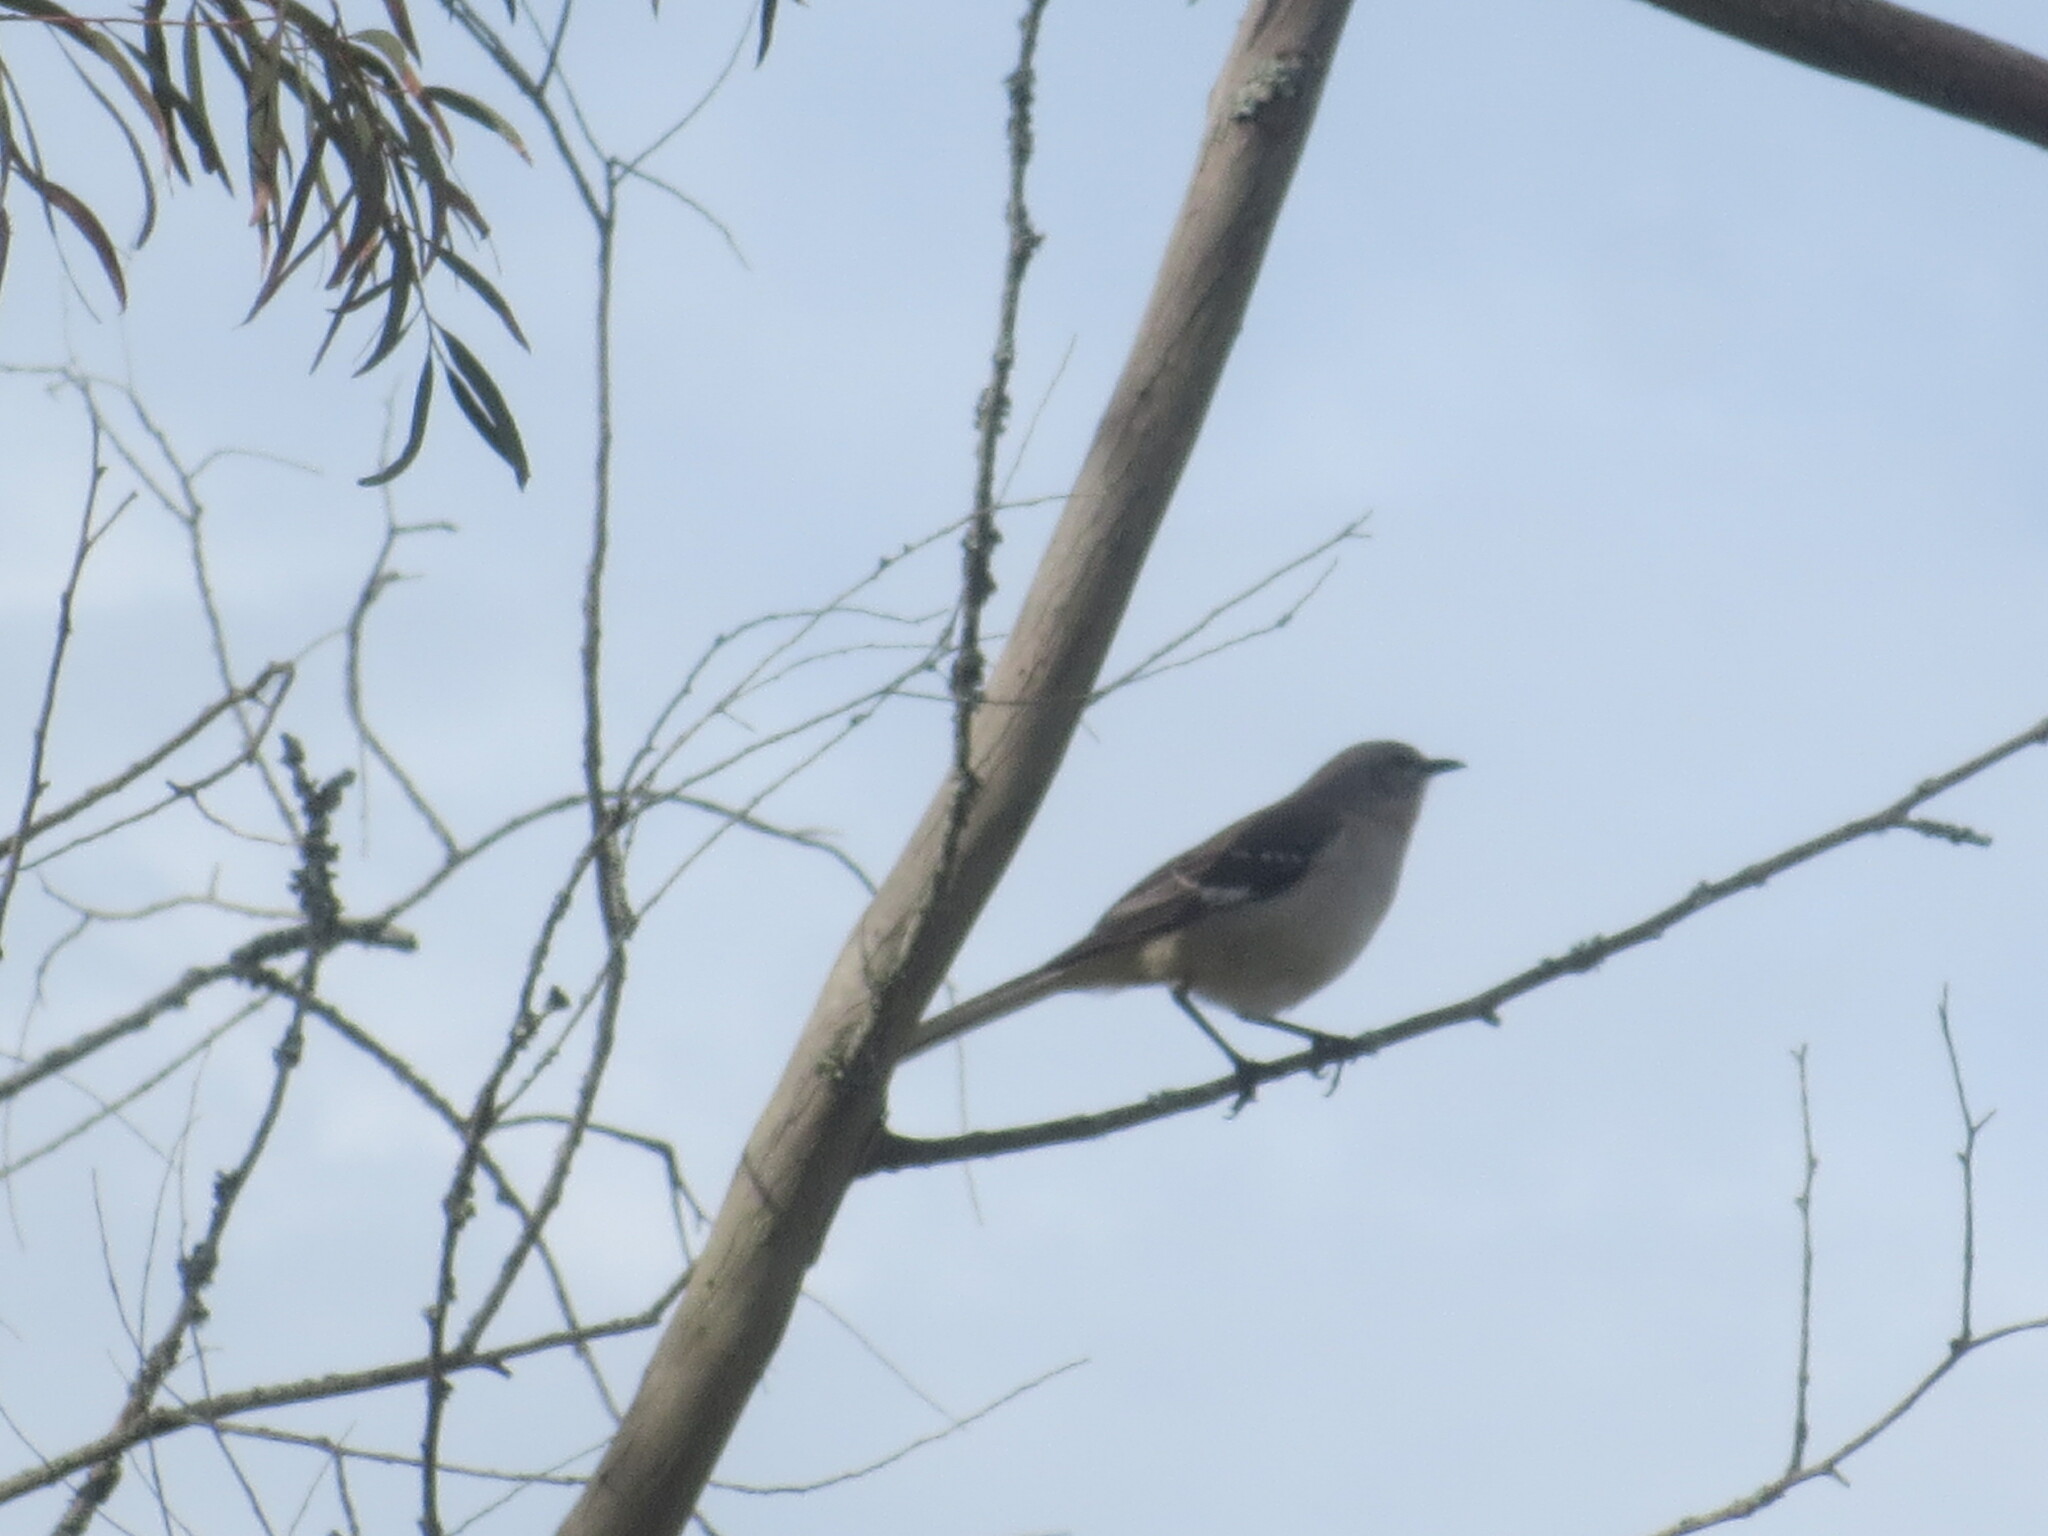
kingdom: Animalia
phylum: Chordata
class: Aves
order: Passeriformes
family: Mimidae
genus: Mimus
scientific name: Mimus polyglottos
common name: Northern mockingbird
